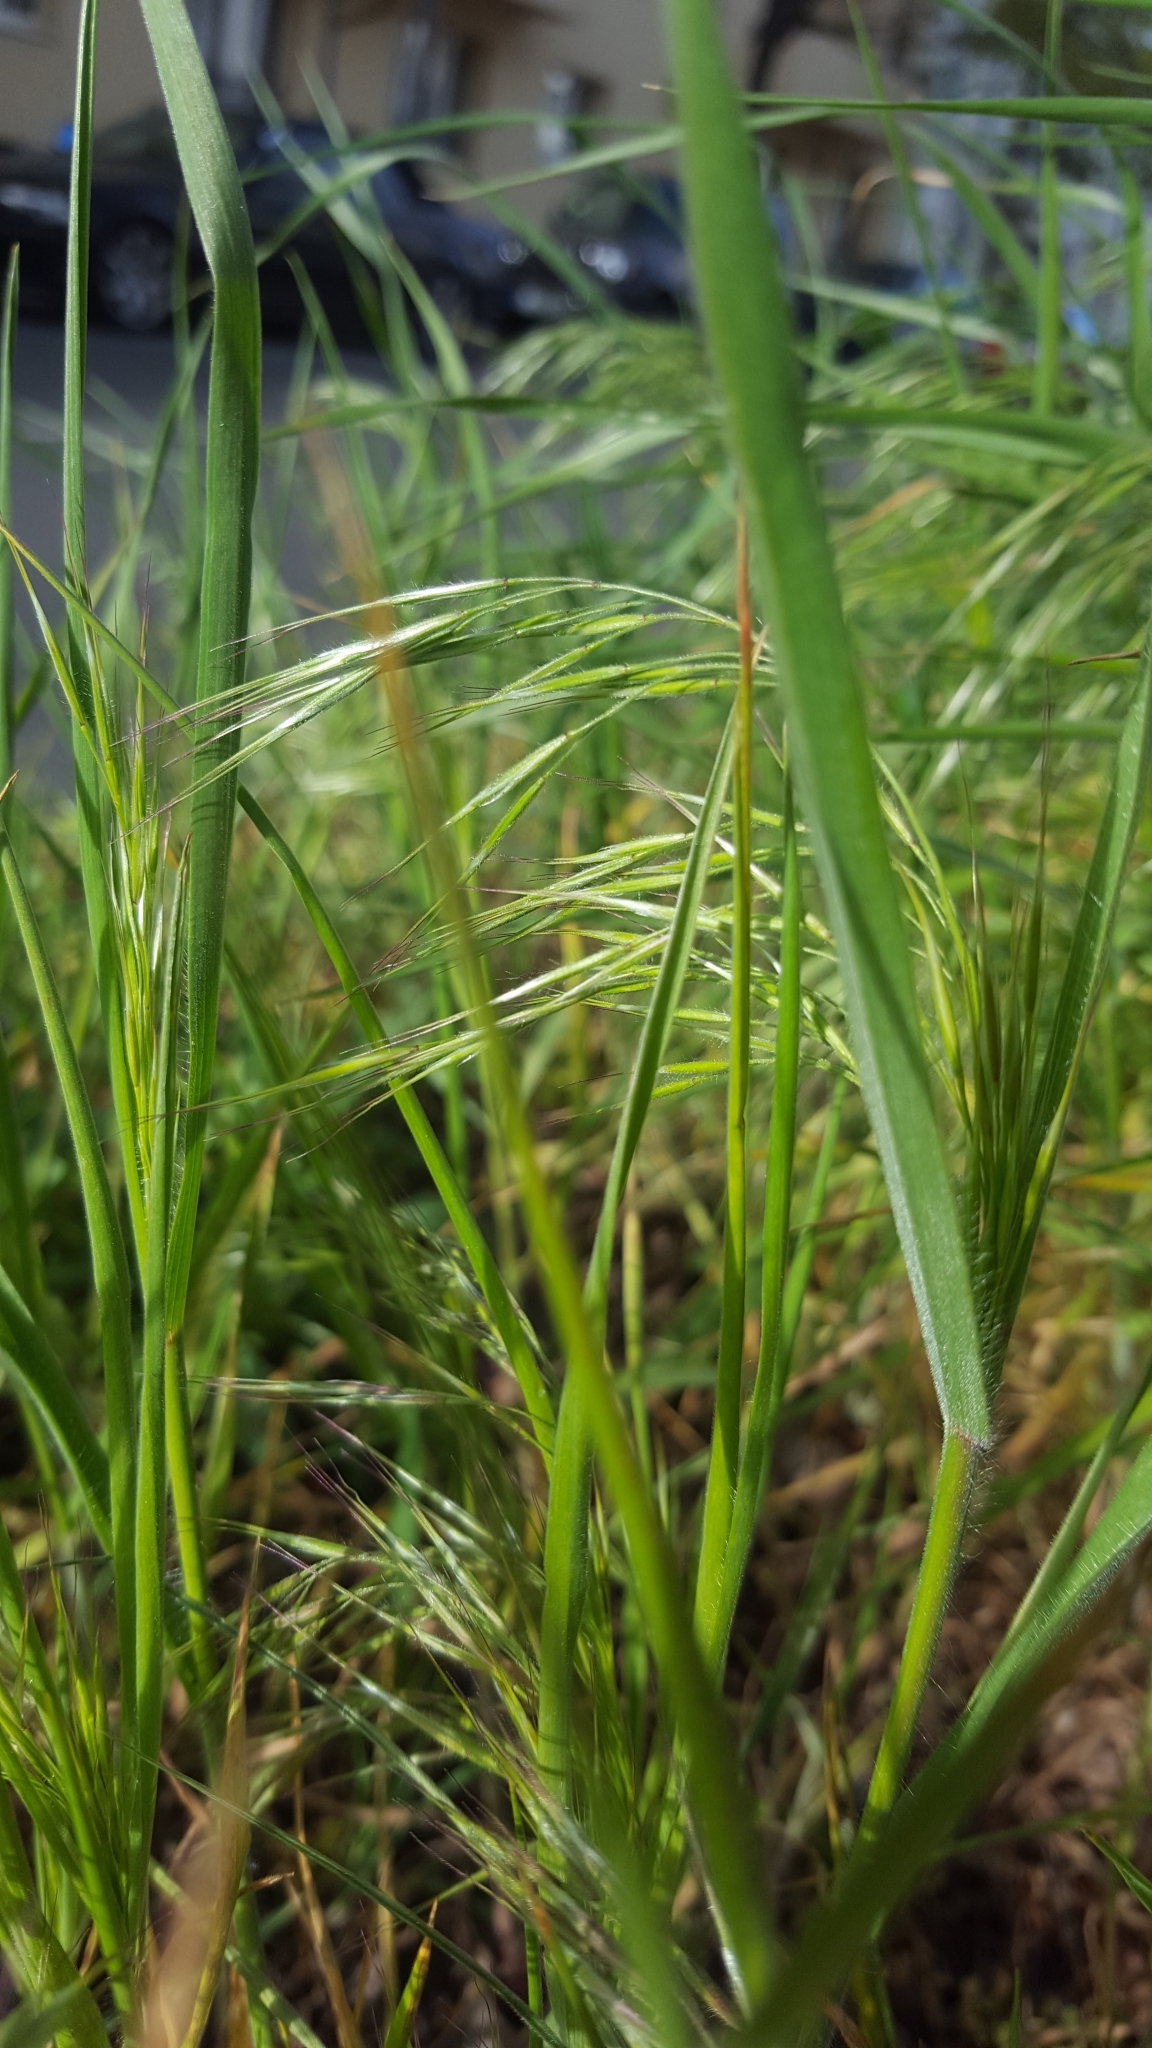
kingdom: Plantae
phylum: Tracheophyta
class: Liliopsida
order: Poales
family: Poaceae
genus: Bromus
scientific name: Bromus tectorum
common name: Cheatgrass
